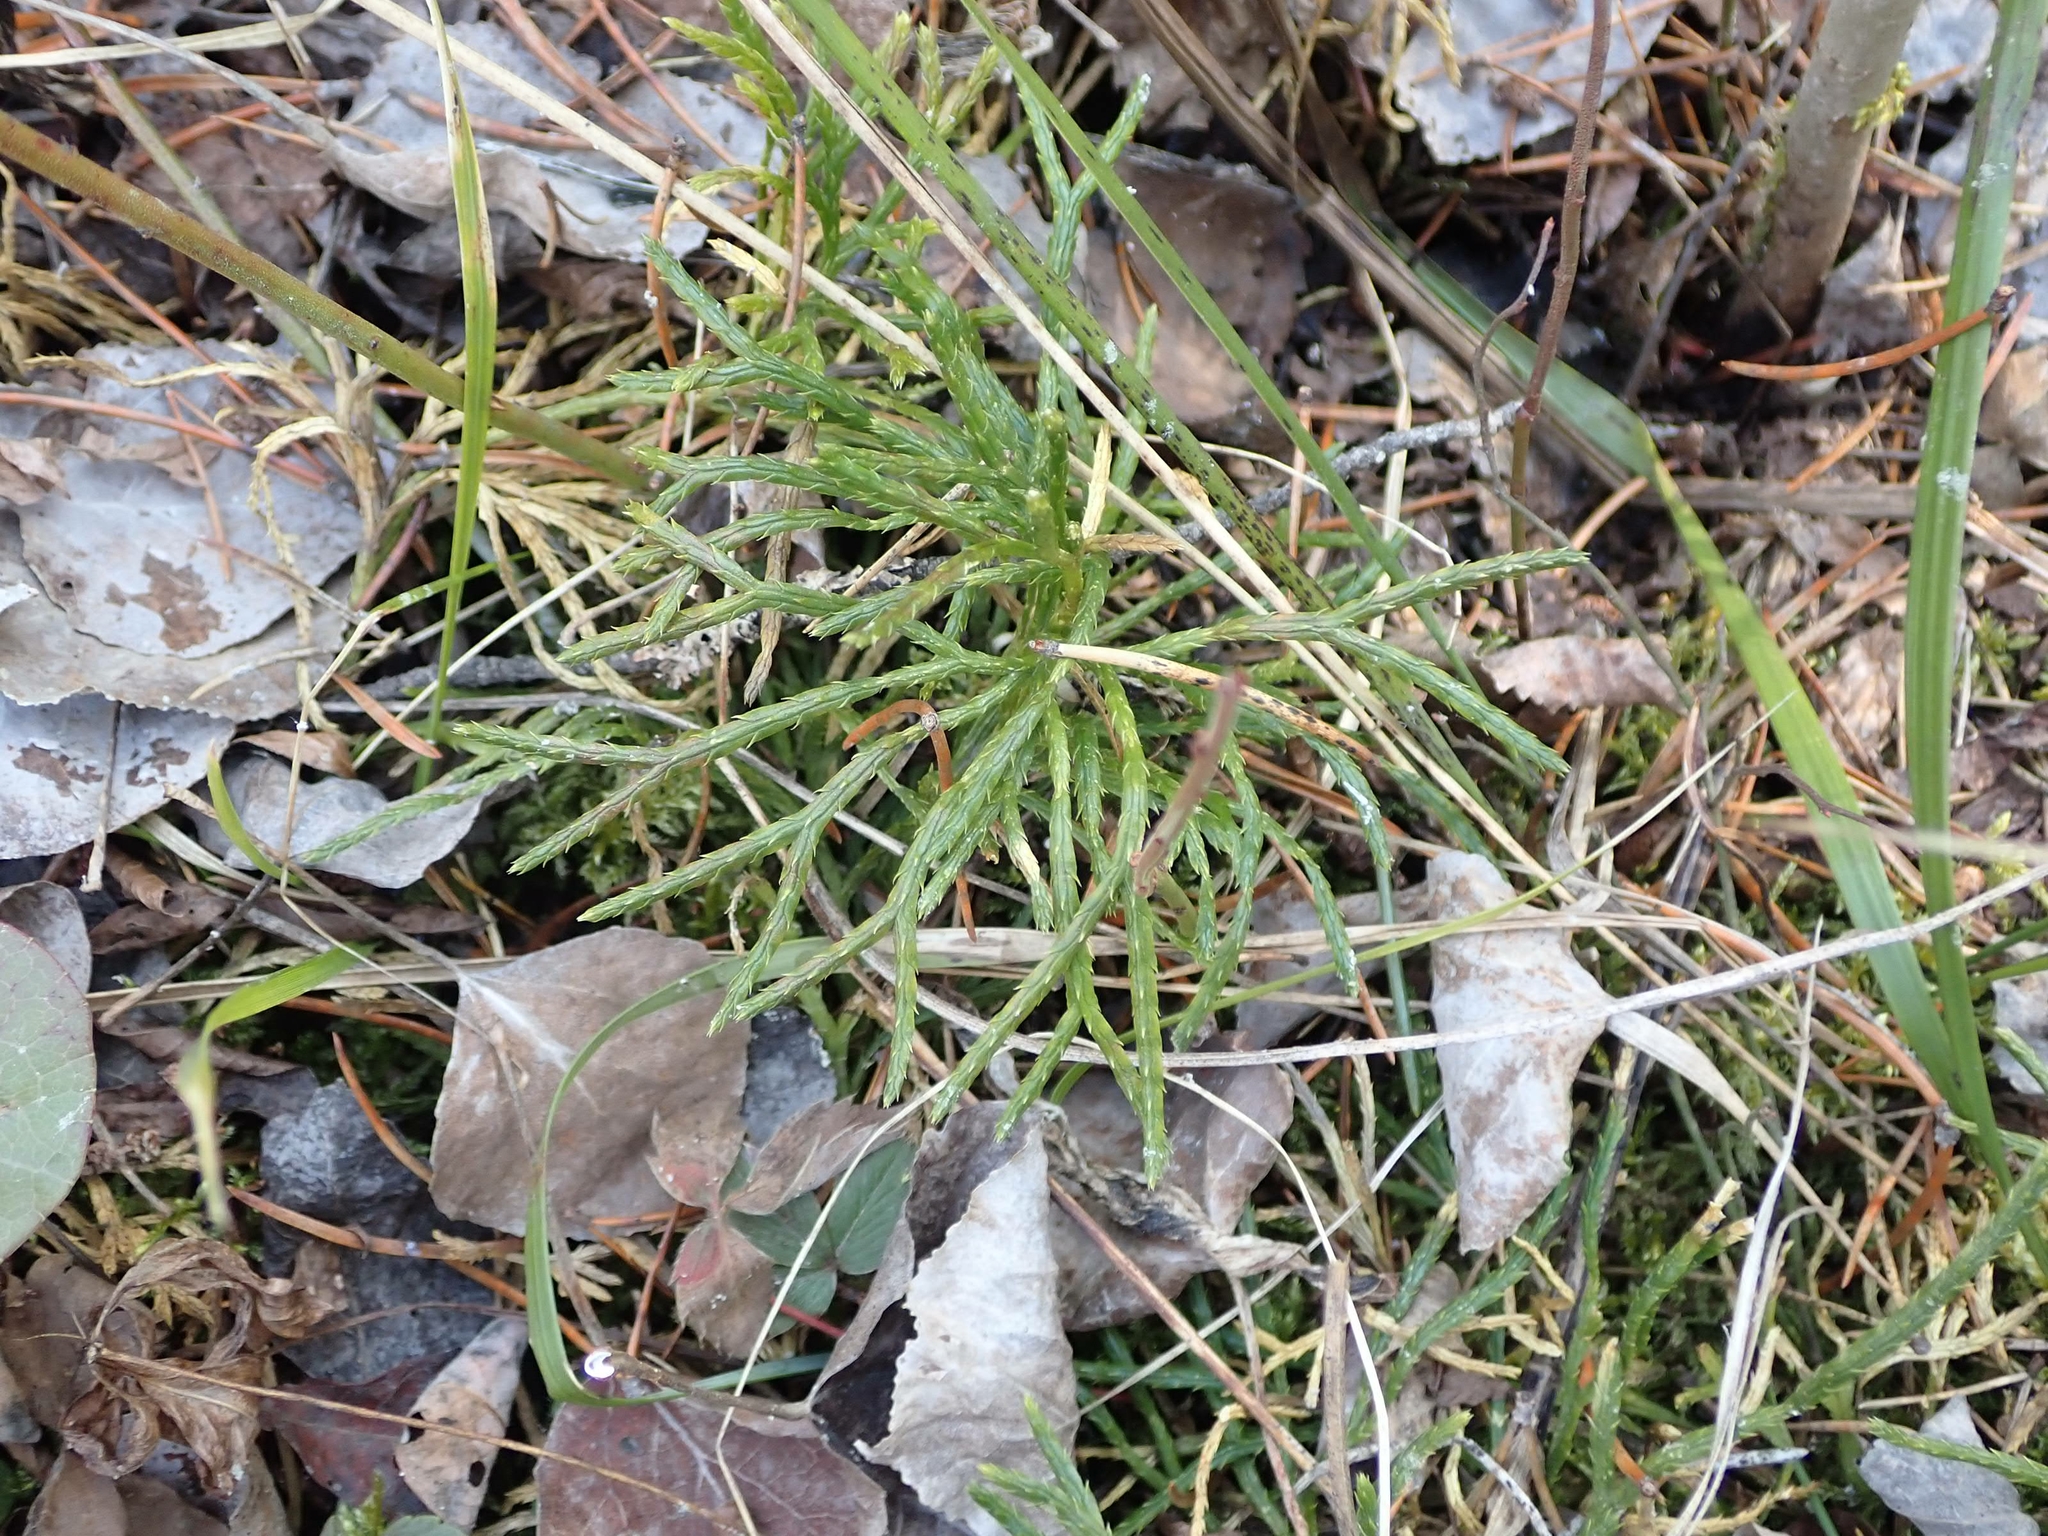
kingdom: Plantae
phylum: Tracheophyta
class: Lycopodiopsida
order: Lycopodiales
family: Lycopodiaceae
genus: Diphasiastrum
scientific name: Diphasiastrum complanatum
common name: Northern running-pine
